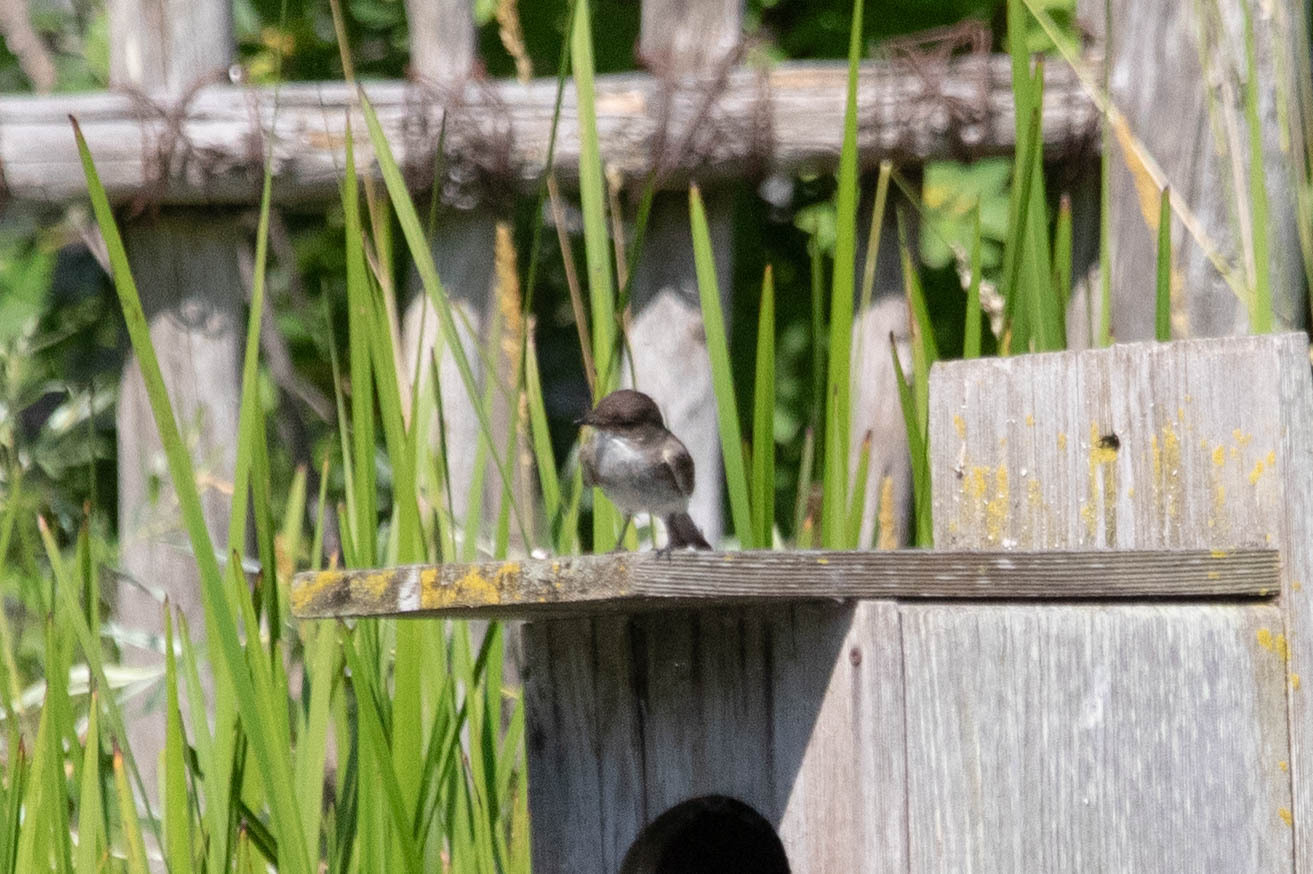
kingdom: Animalia
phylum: Chordata
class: Aves
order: Passeriformes
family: Tyrannidae
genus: Sayornis
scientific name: Sayornis phoebe
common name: Eastern phoebe
